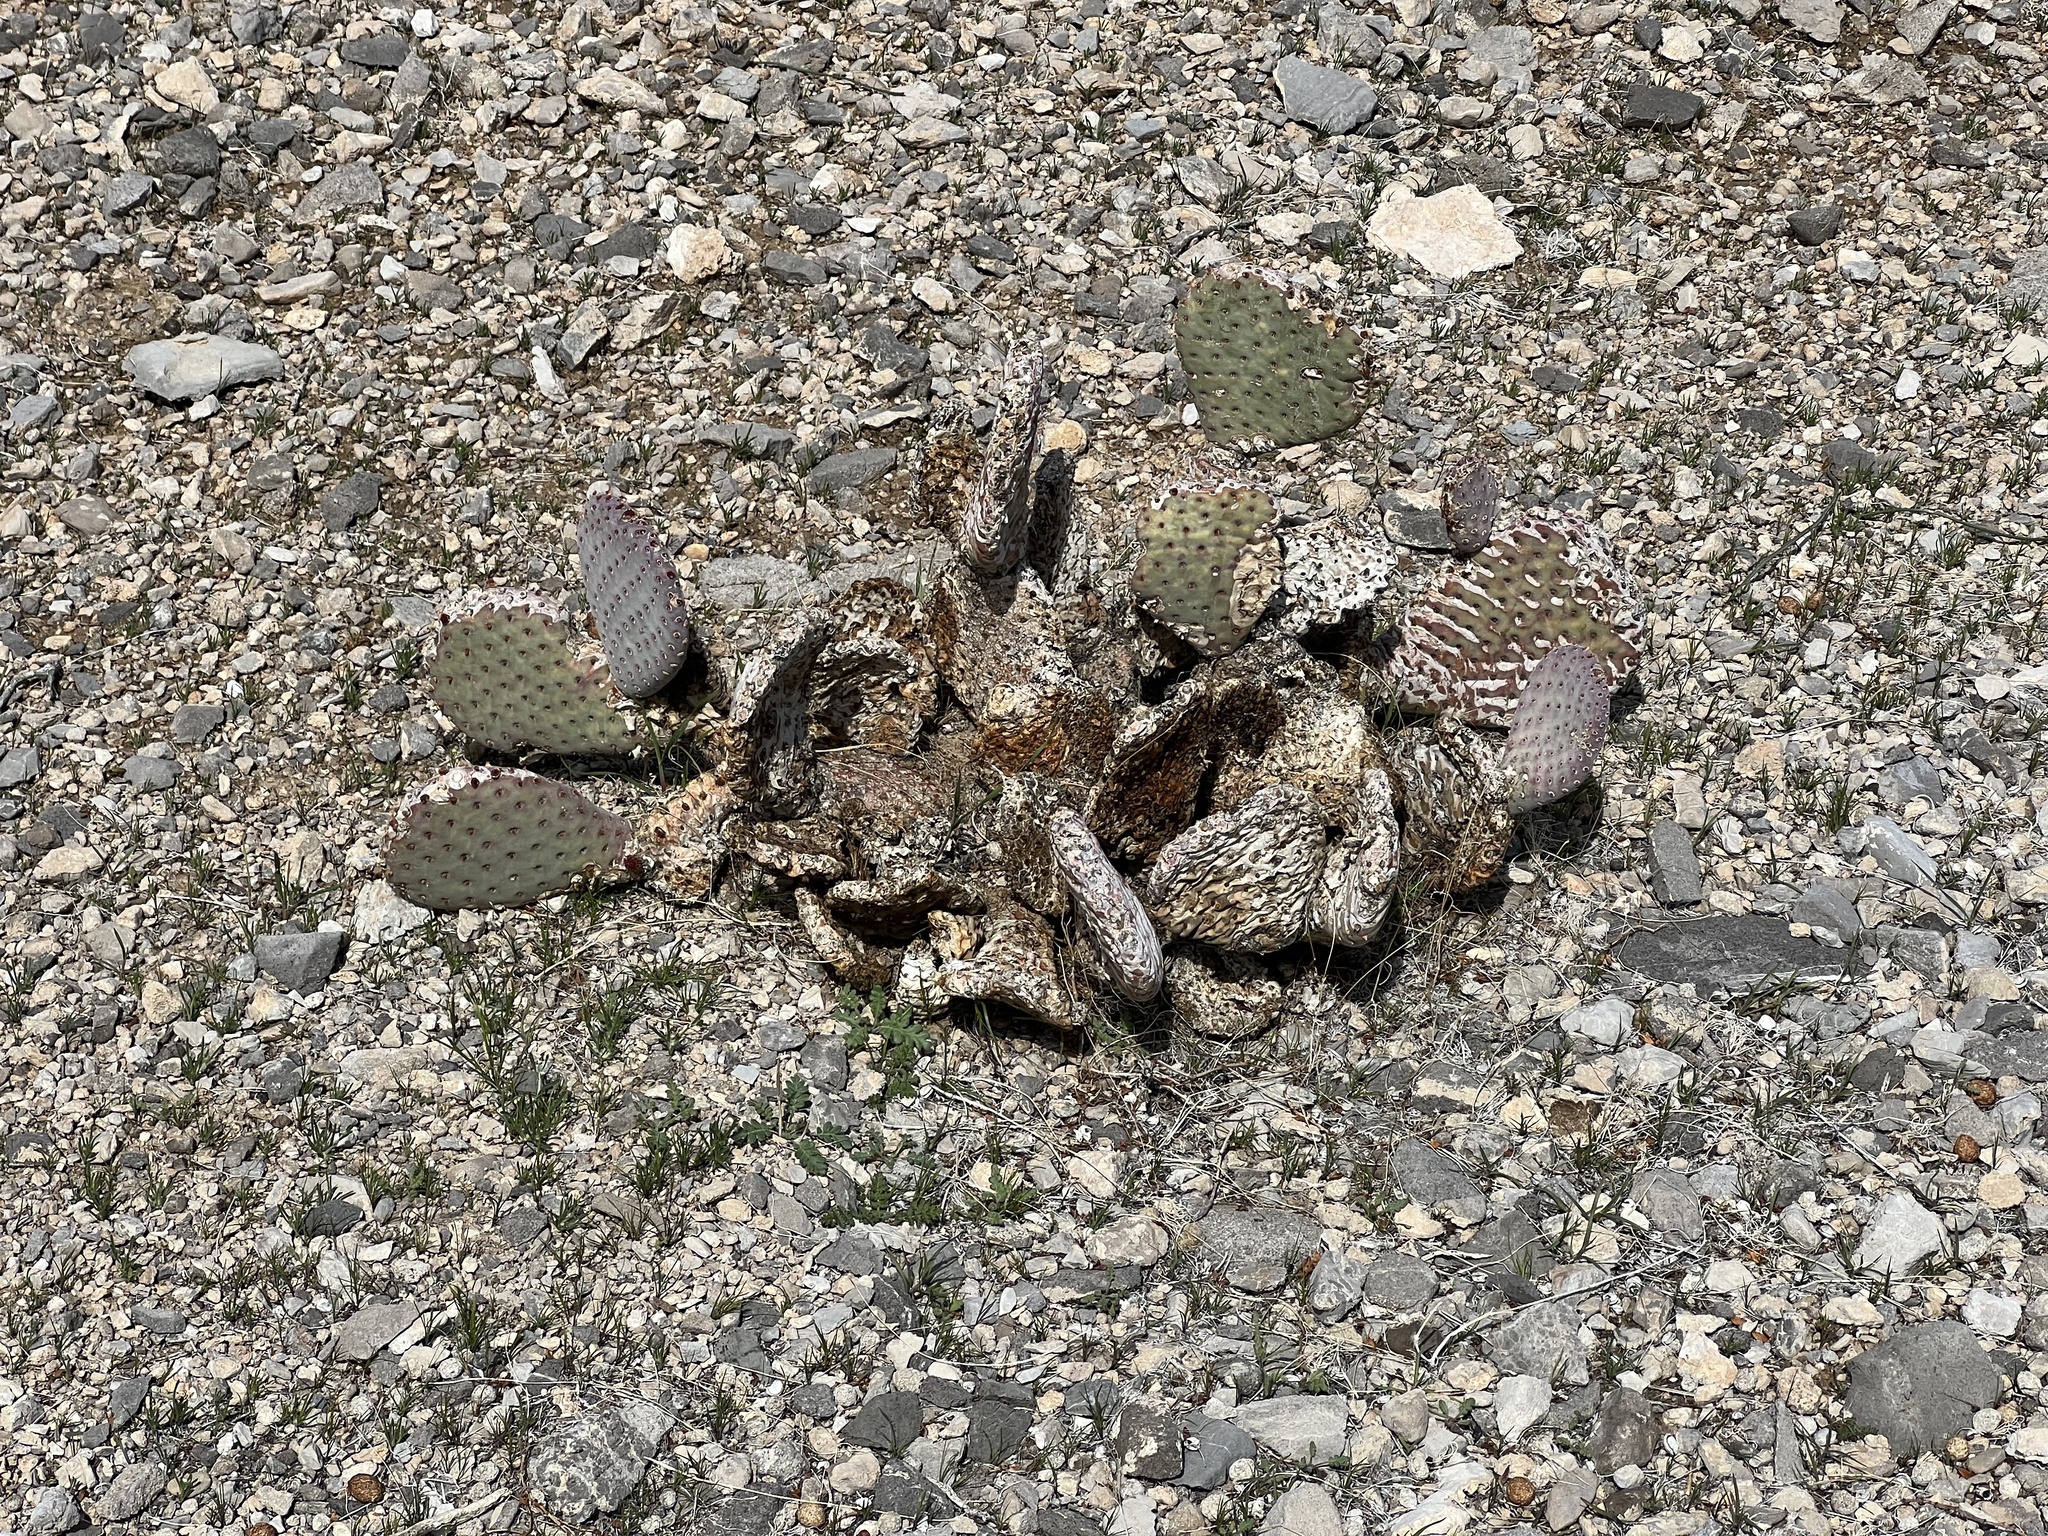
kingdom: Plantae
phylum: Tracheophyta
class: Magnoliopsida
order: Caryophyllales
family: Cactaceae
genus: Opuntia
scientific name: Opuntia basilaris
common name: Beavertail prickly-pear
